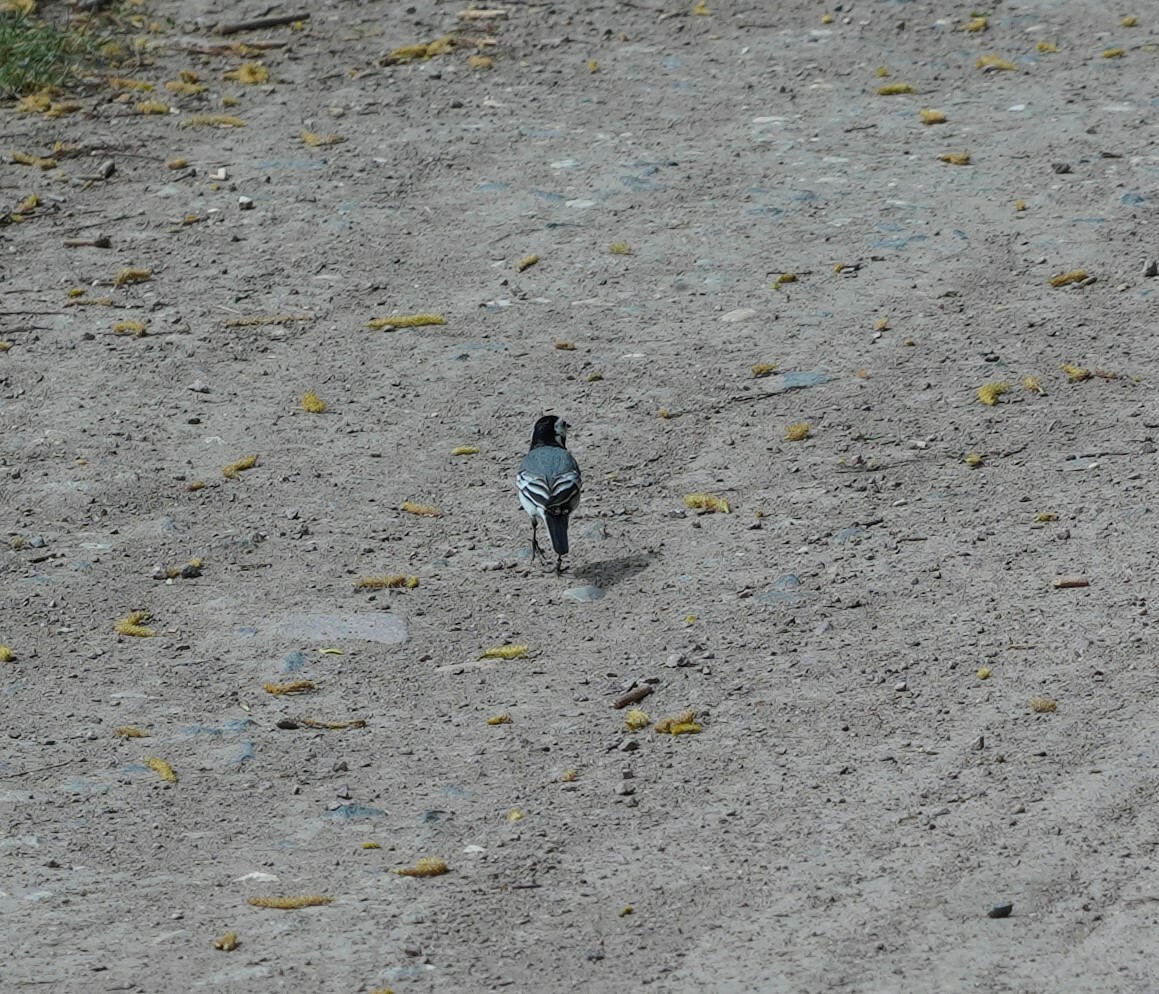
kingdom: Animalia
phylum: Chordata
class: Aves
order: Passeriformes
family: Motacillidae
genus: Motacilla
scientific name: Motacilla alba
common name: White wagtail
